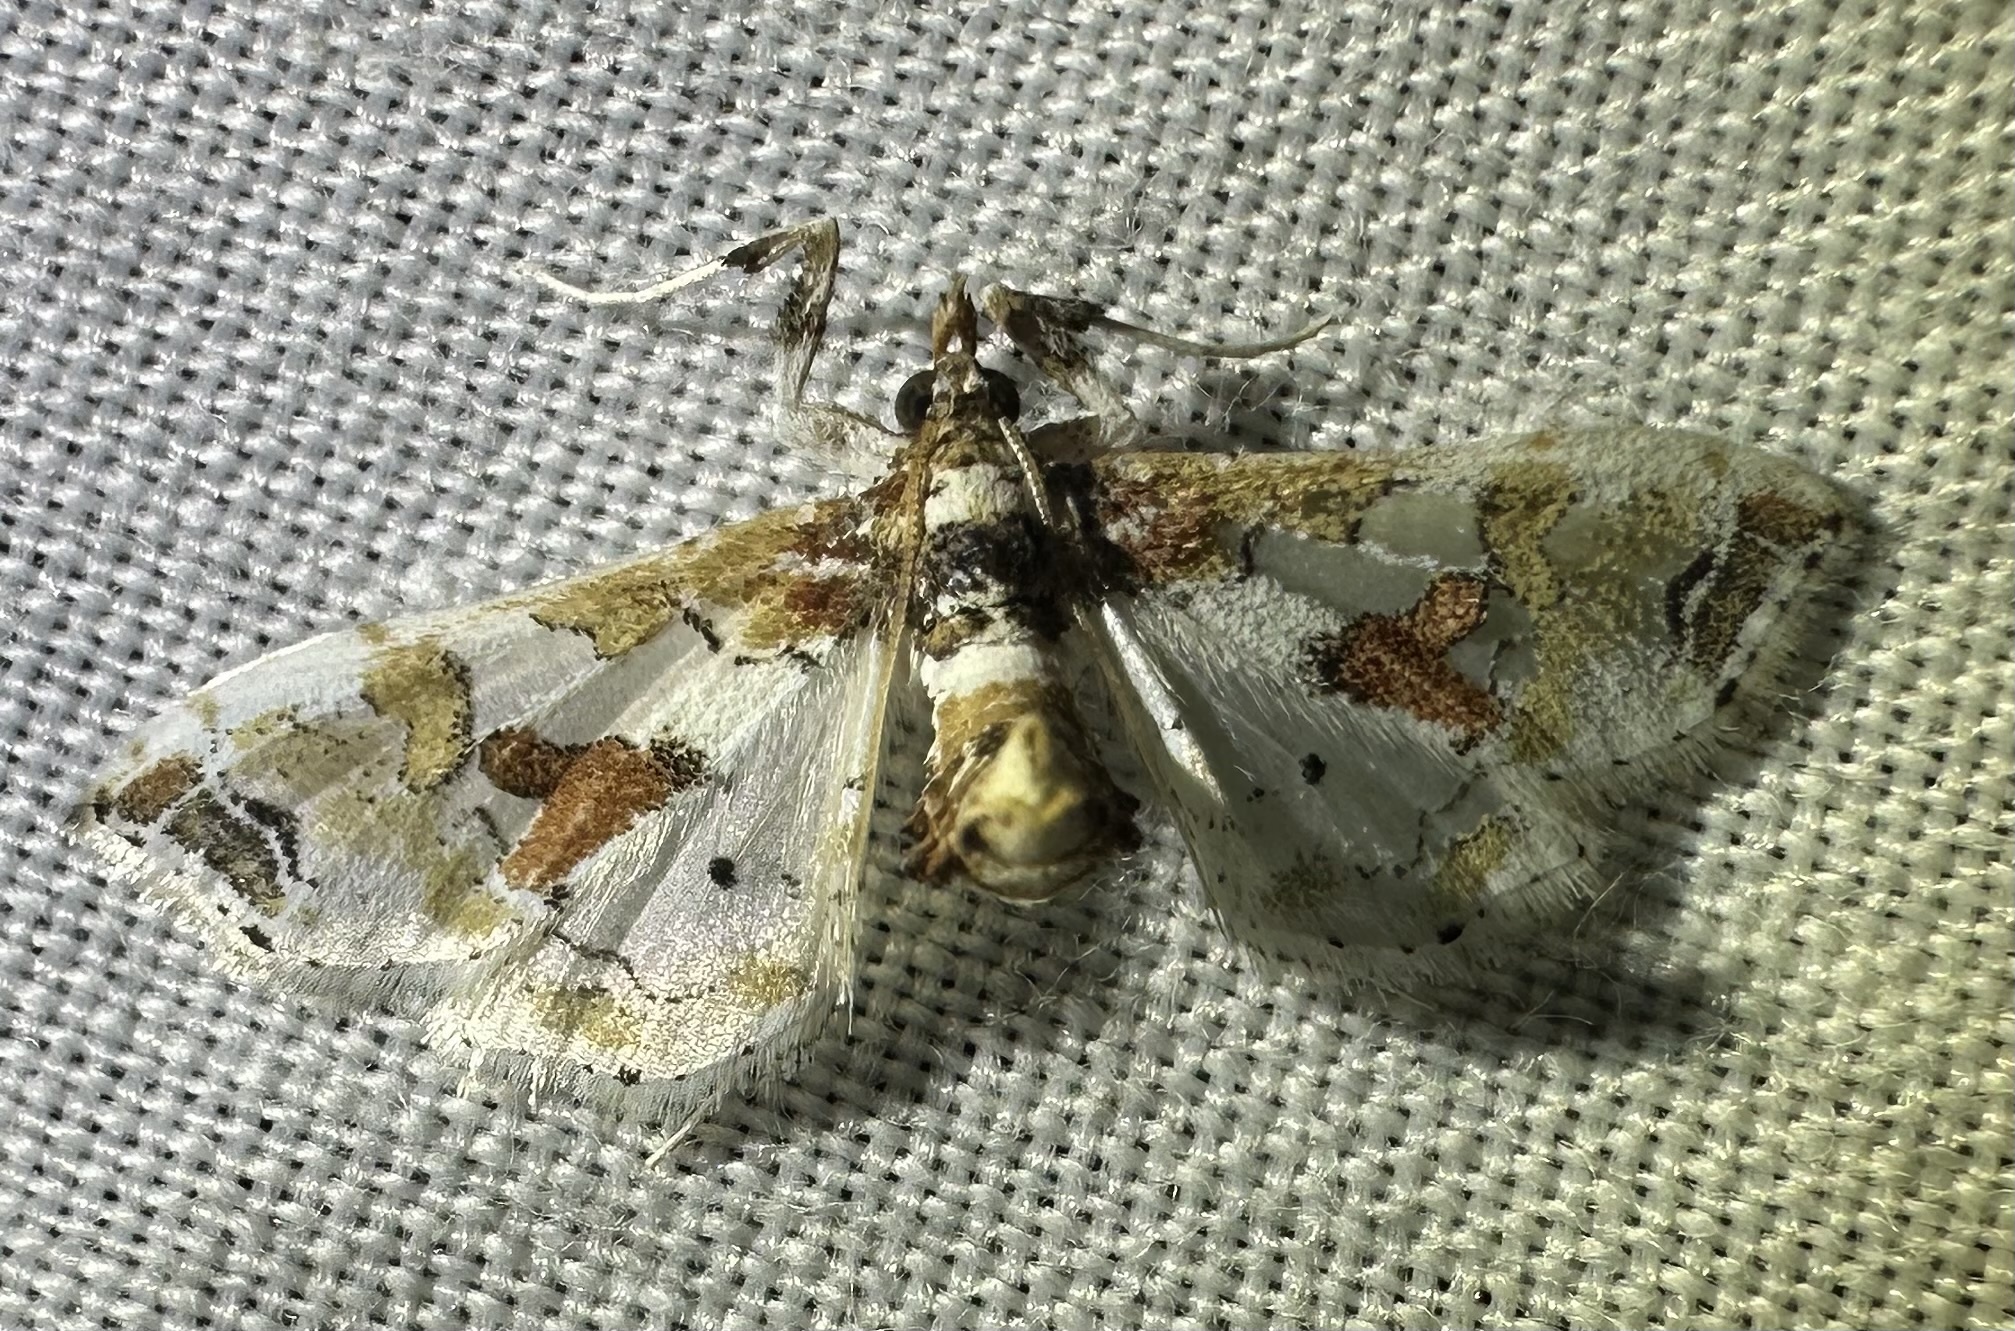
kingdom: Animalia
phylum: Arthropoda
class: Insecta
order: Lepidoptera
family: Crambidae
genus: Leucinodes
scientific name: Leucinodes pseudorbonalis
